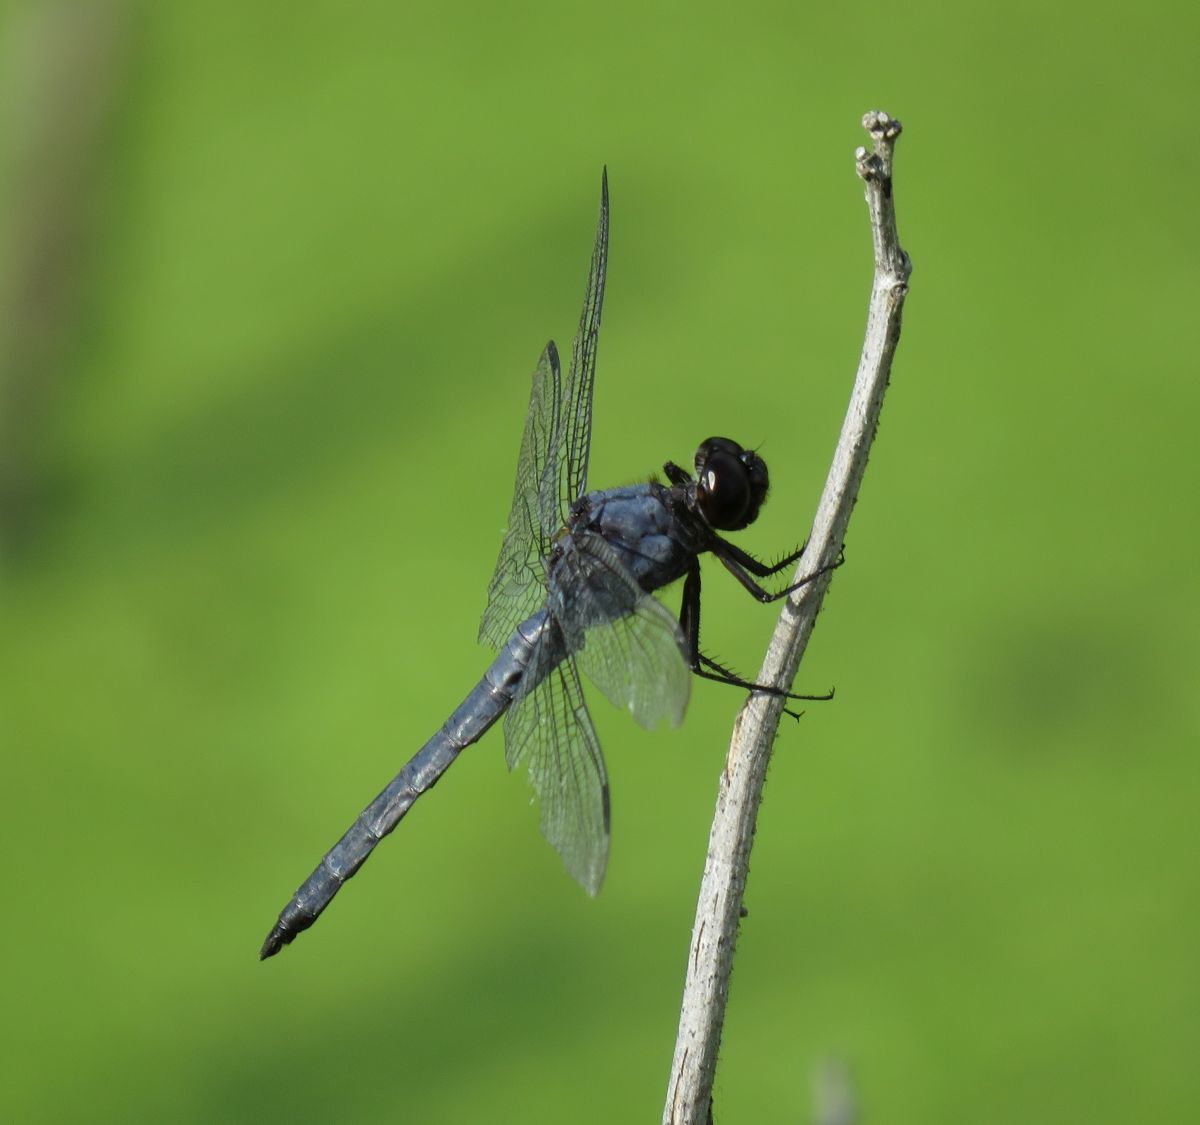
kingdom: Animalia
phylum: Arthropoda
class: Insecta
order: Odonata
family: Libellulidae
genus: Libellula
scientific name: Libellula incesta
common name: Slaty skimmer
